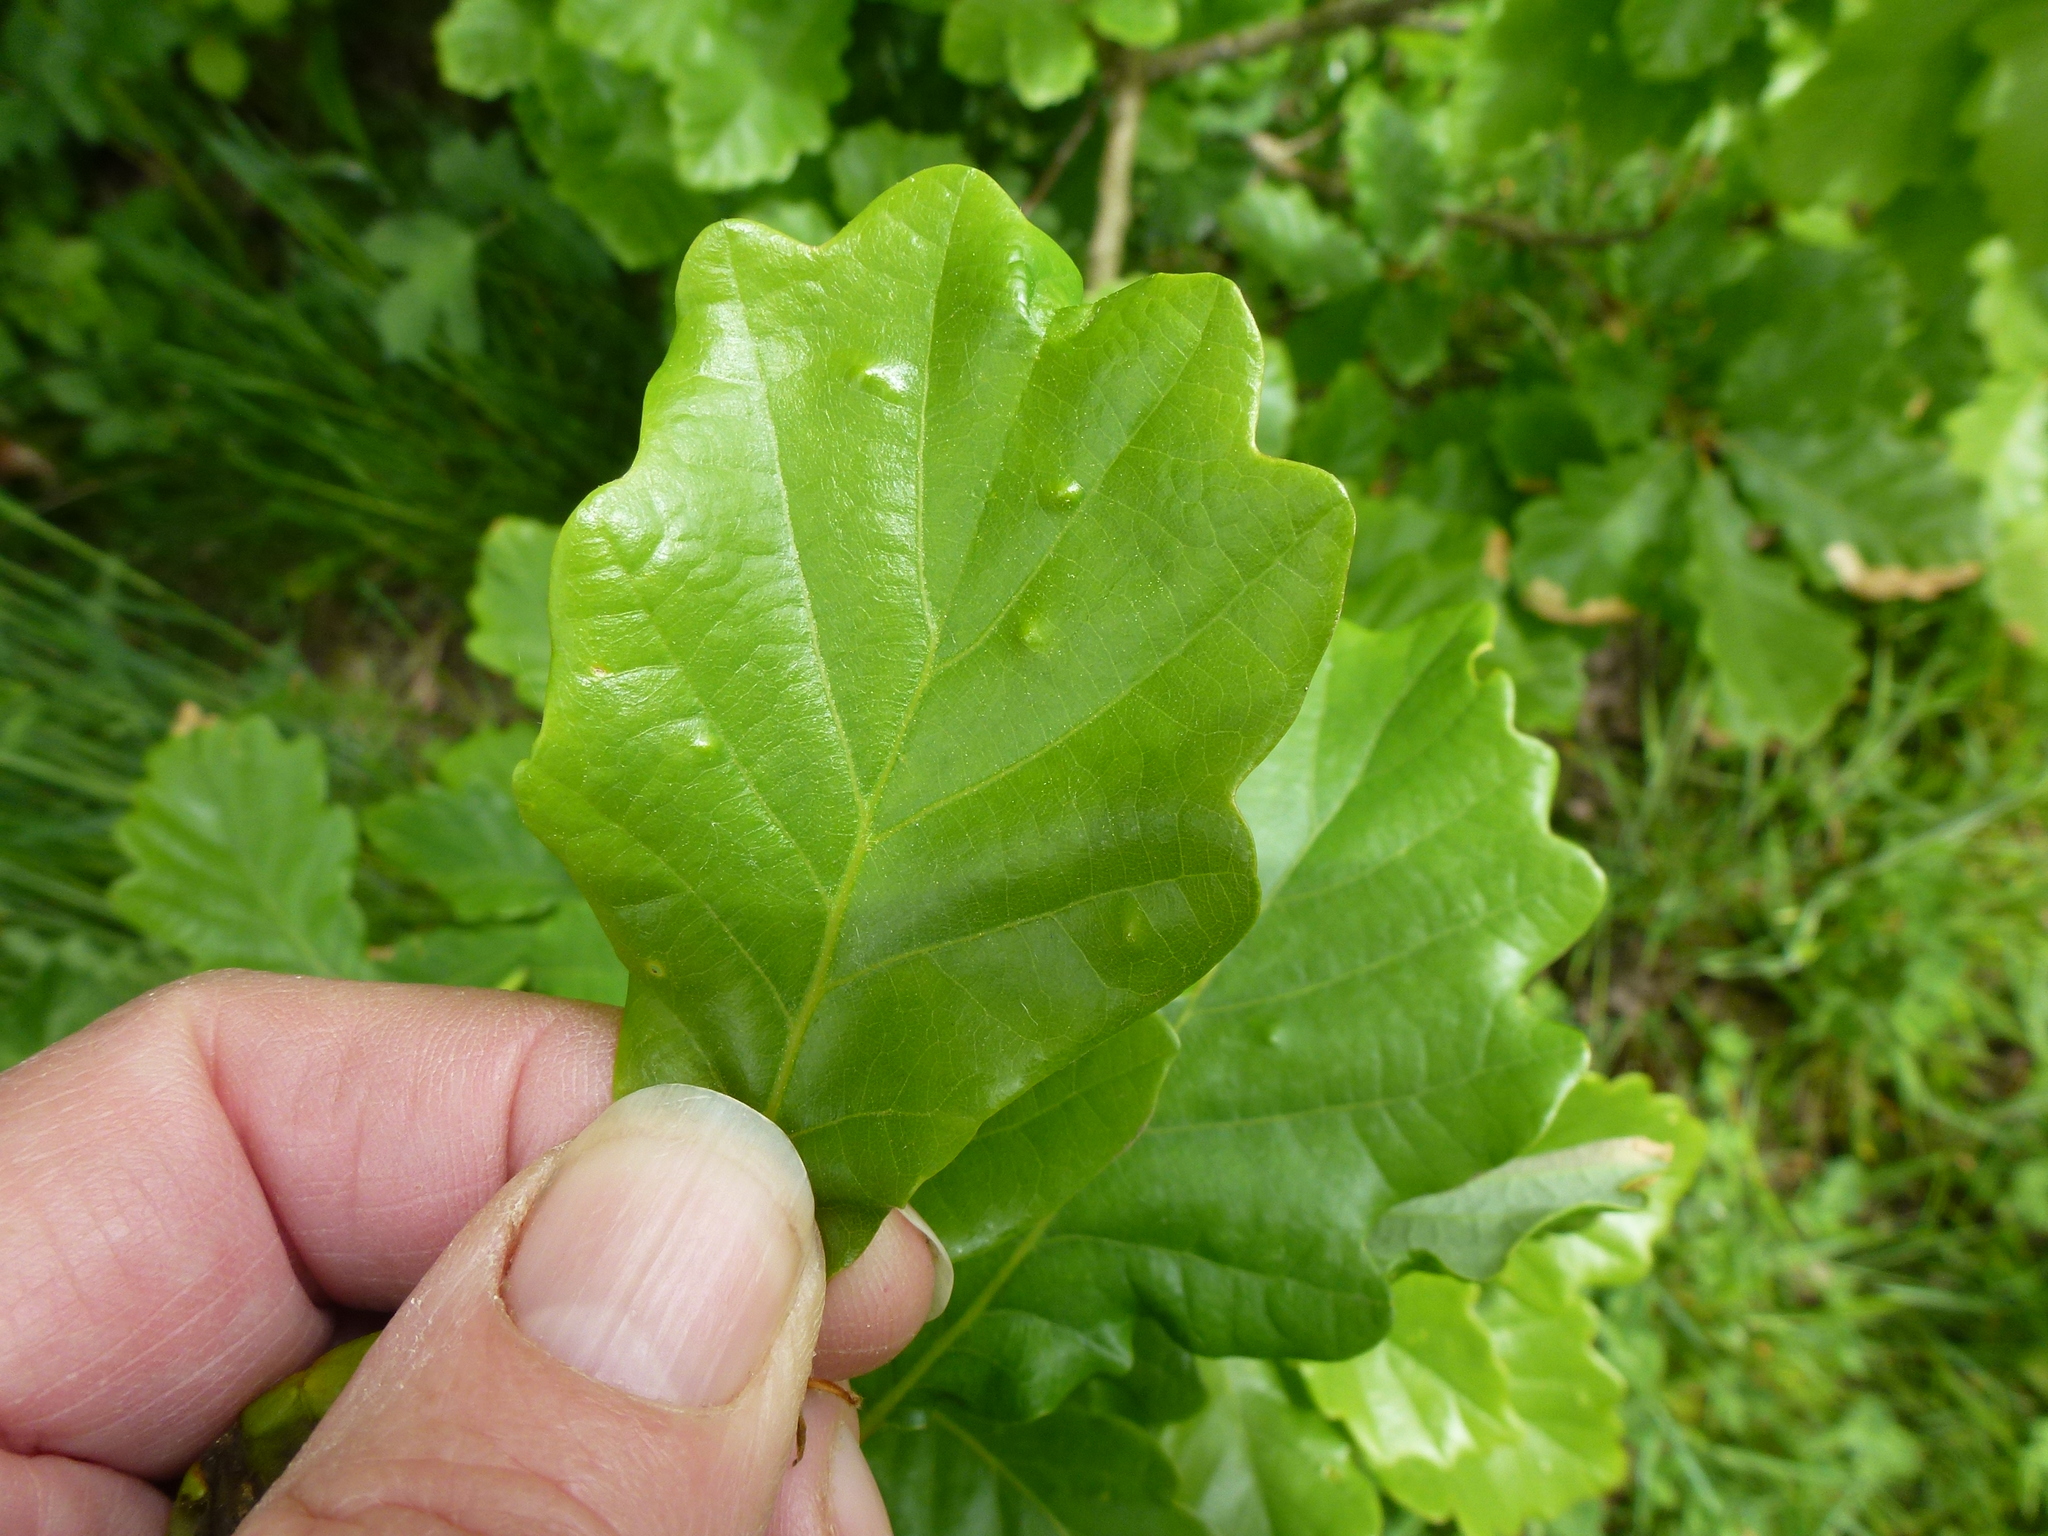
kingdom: Animalia
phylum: Arthropoda
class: Insecta
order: Hemiptera
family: Triozidae
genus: Trioza
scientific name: Trioza remota
